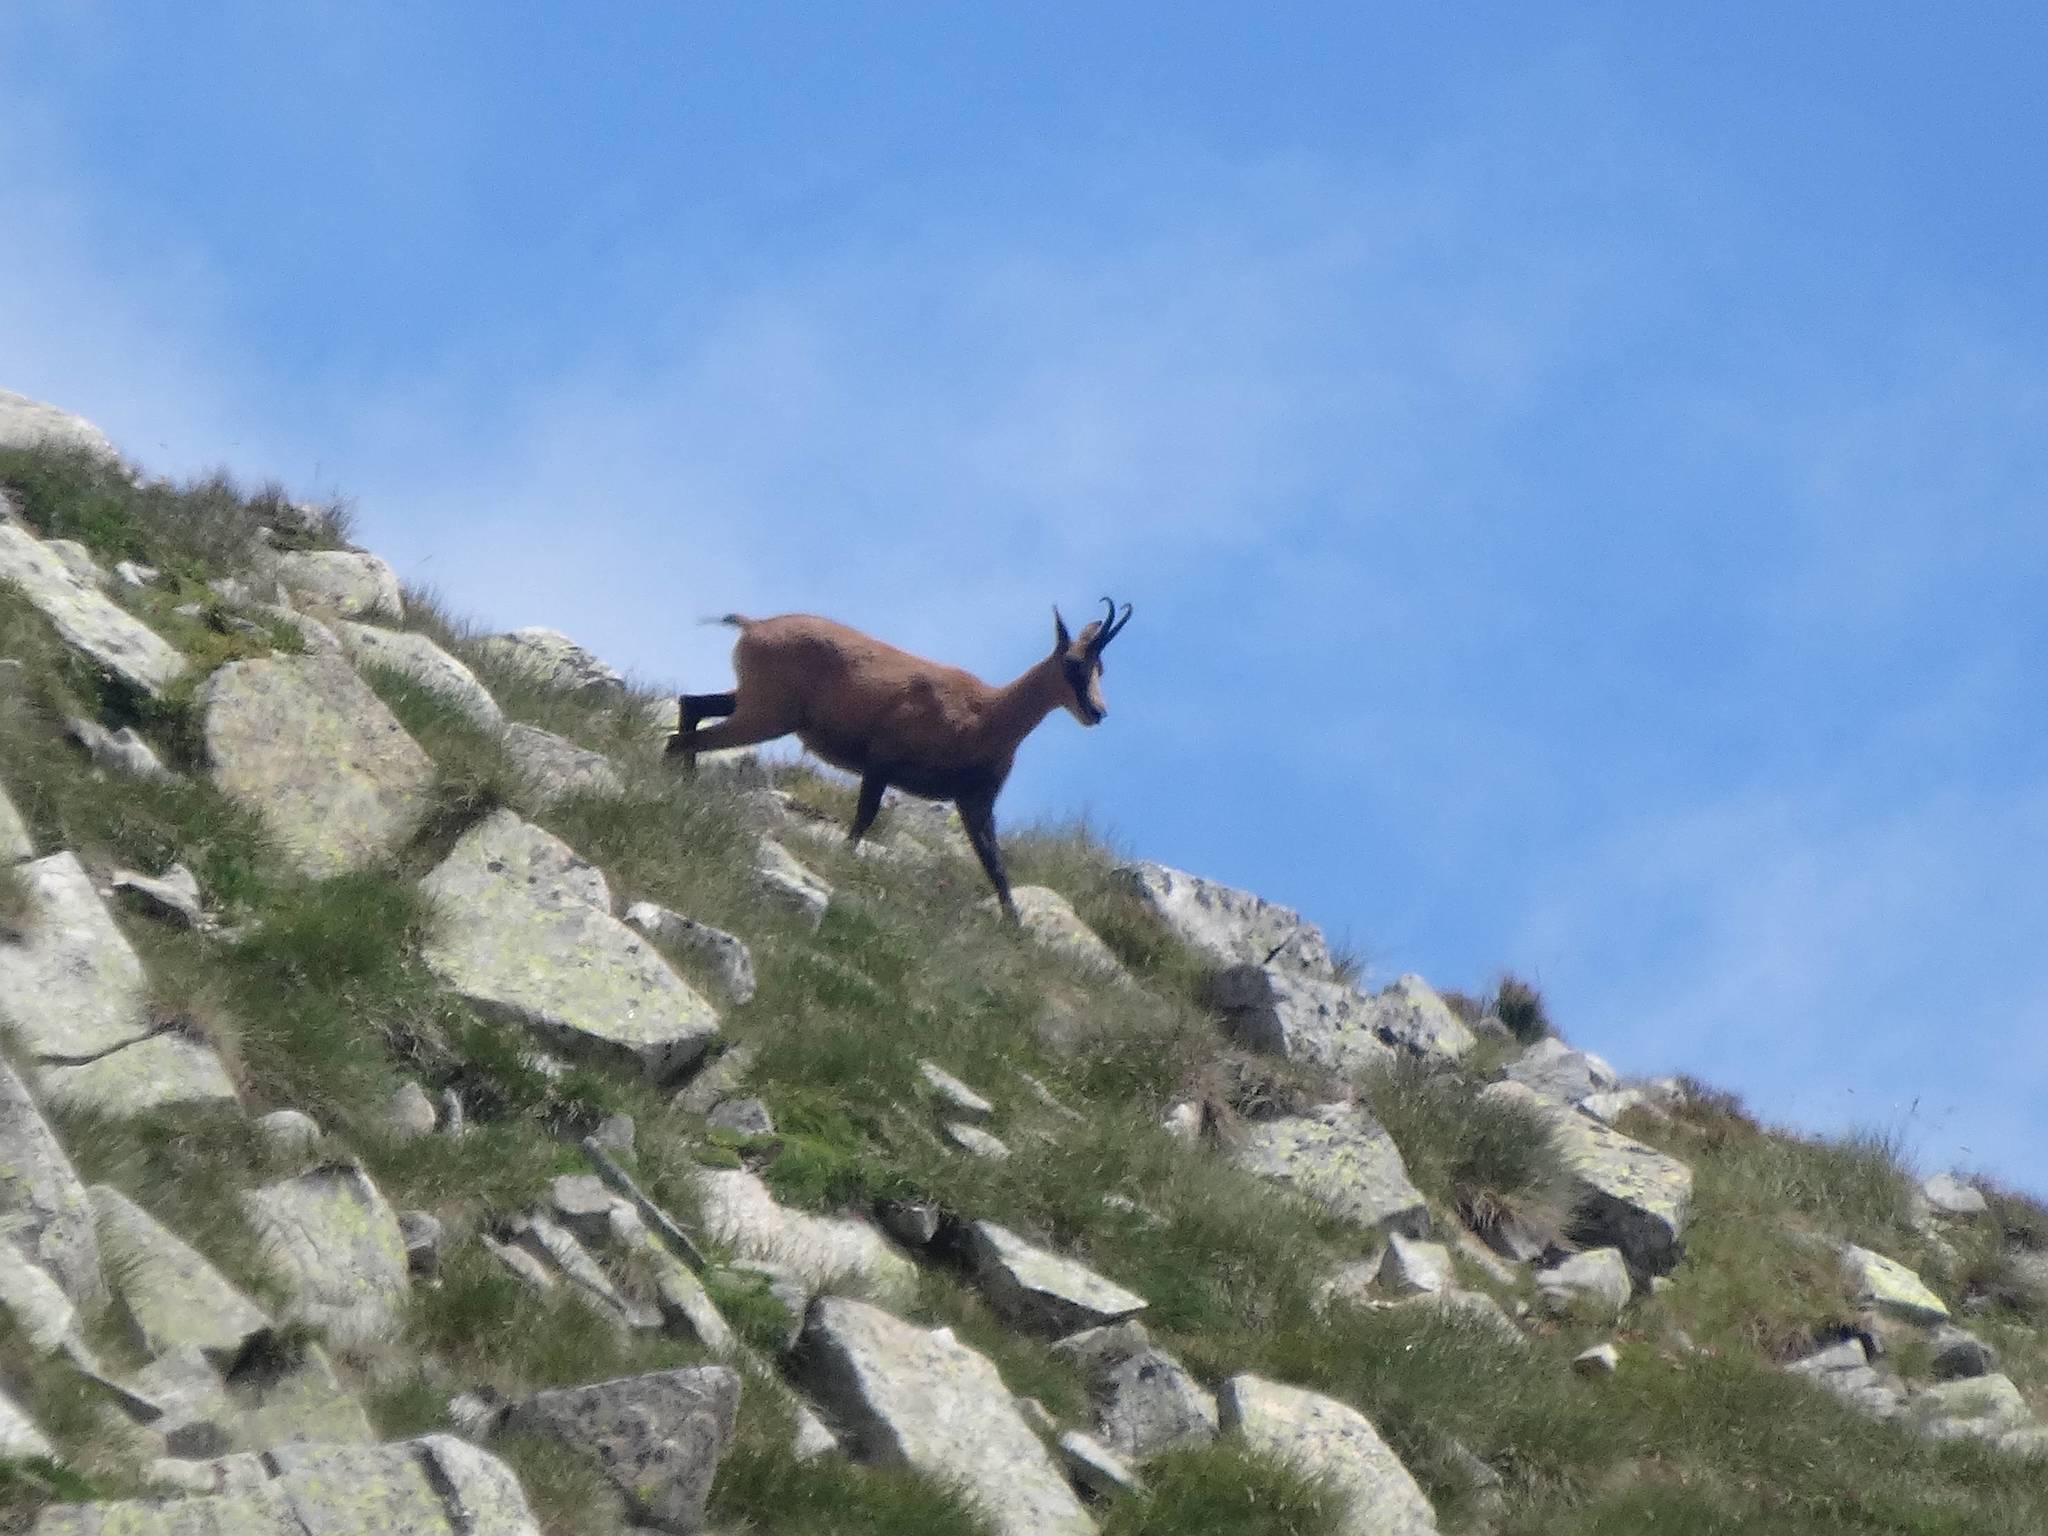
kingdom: Animalia
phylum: Chordata
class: Mammalia
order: Artiodactyla
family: Bovidae
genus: Rupicapra
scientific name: Rupicapra pyrenaica
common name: Pyrenean chamois
